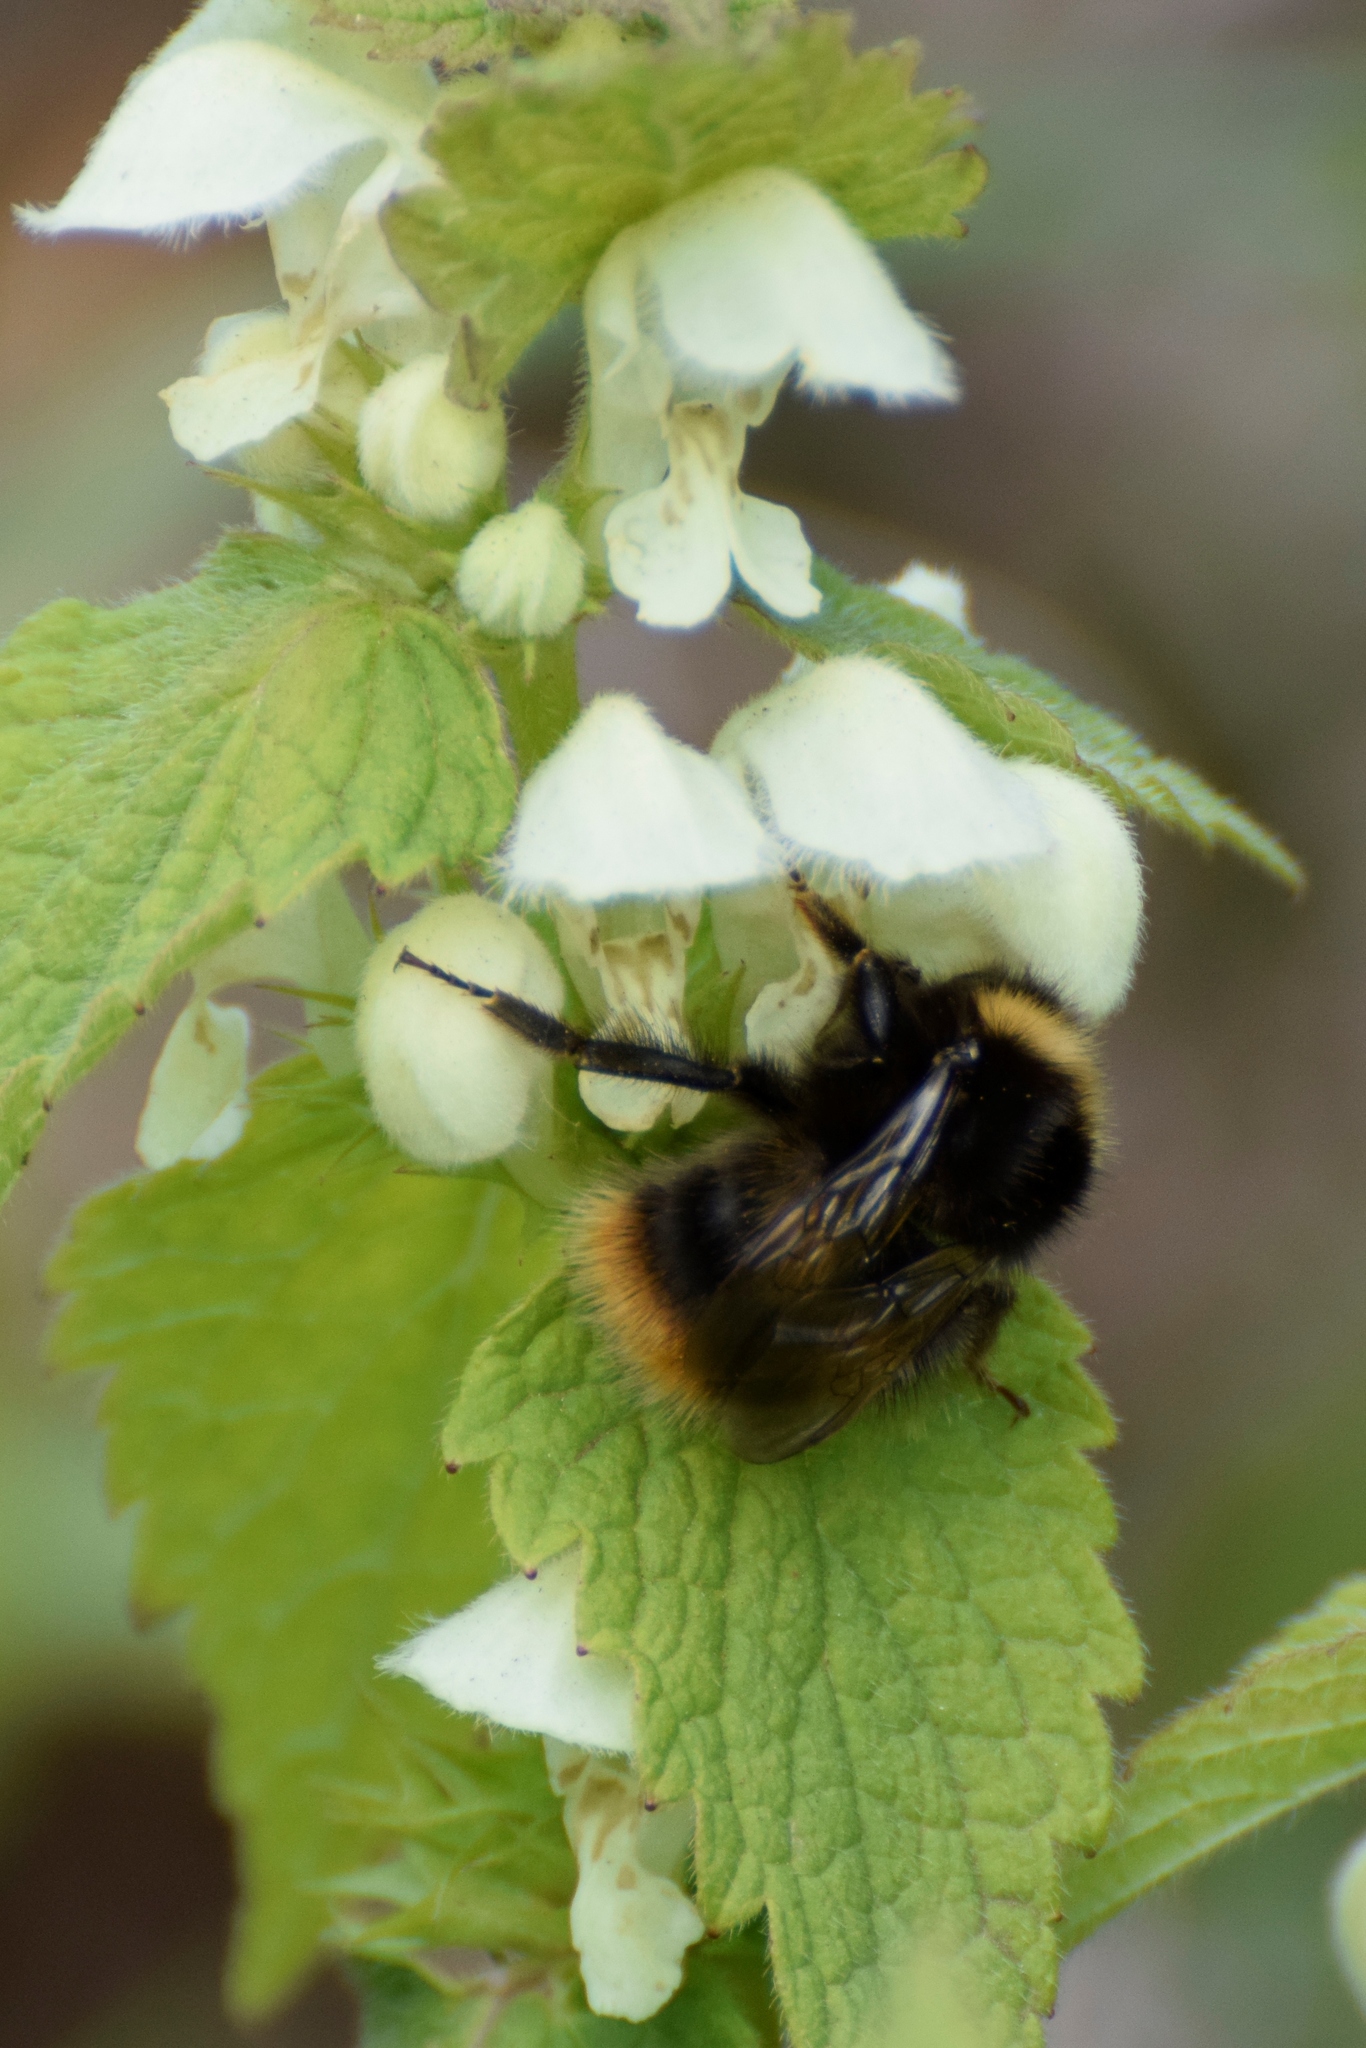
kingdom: Animalia
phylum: Arthropoda
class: Insecta
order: Hymenoptera
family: Apidae
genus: Bombus
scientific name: Bombus pratorum
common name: Early humble-bee
